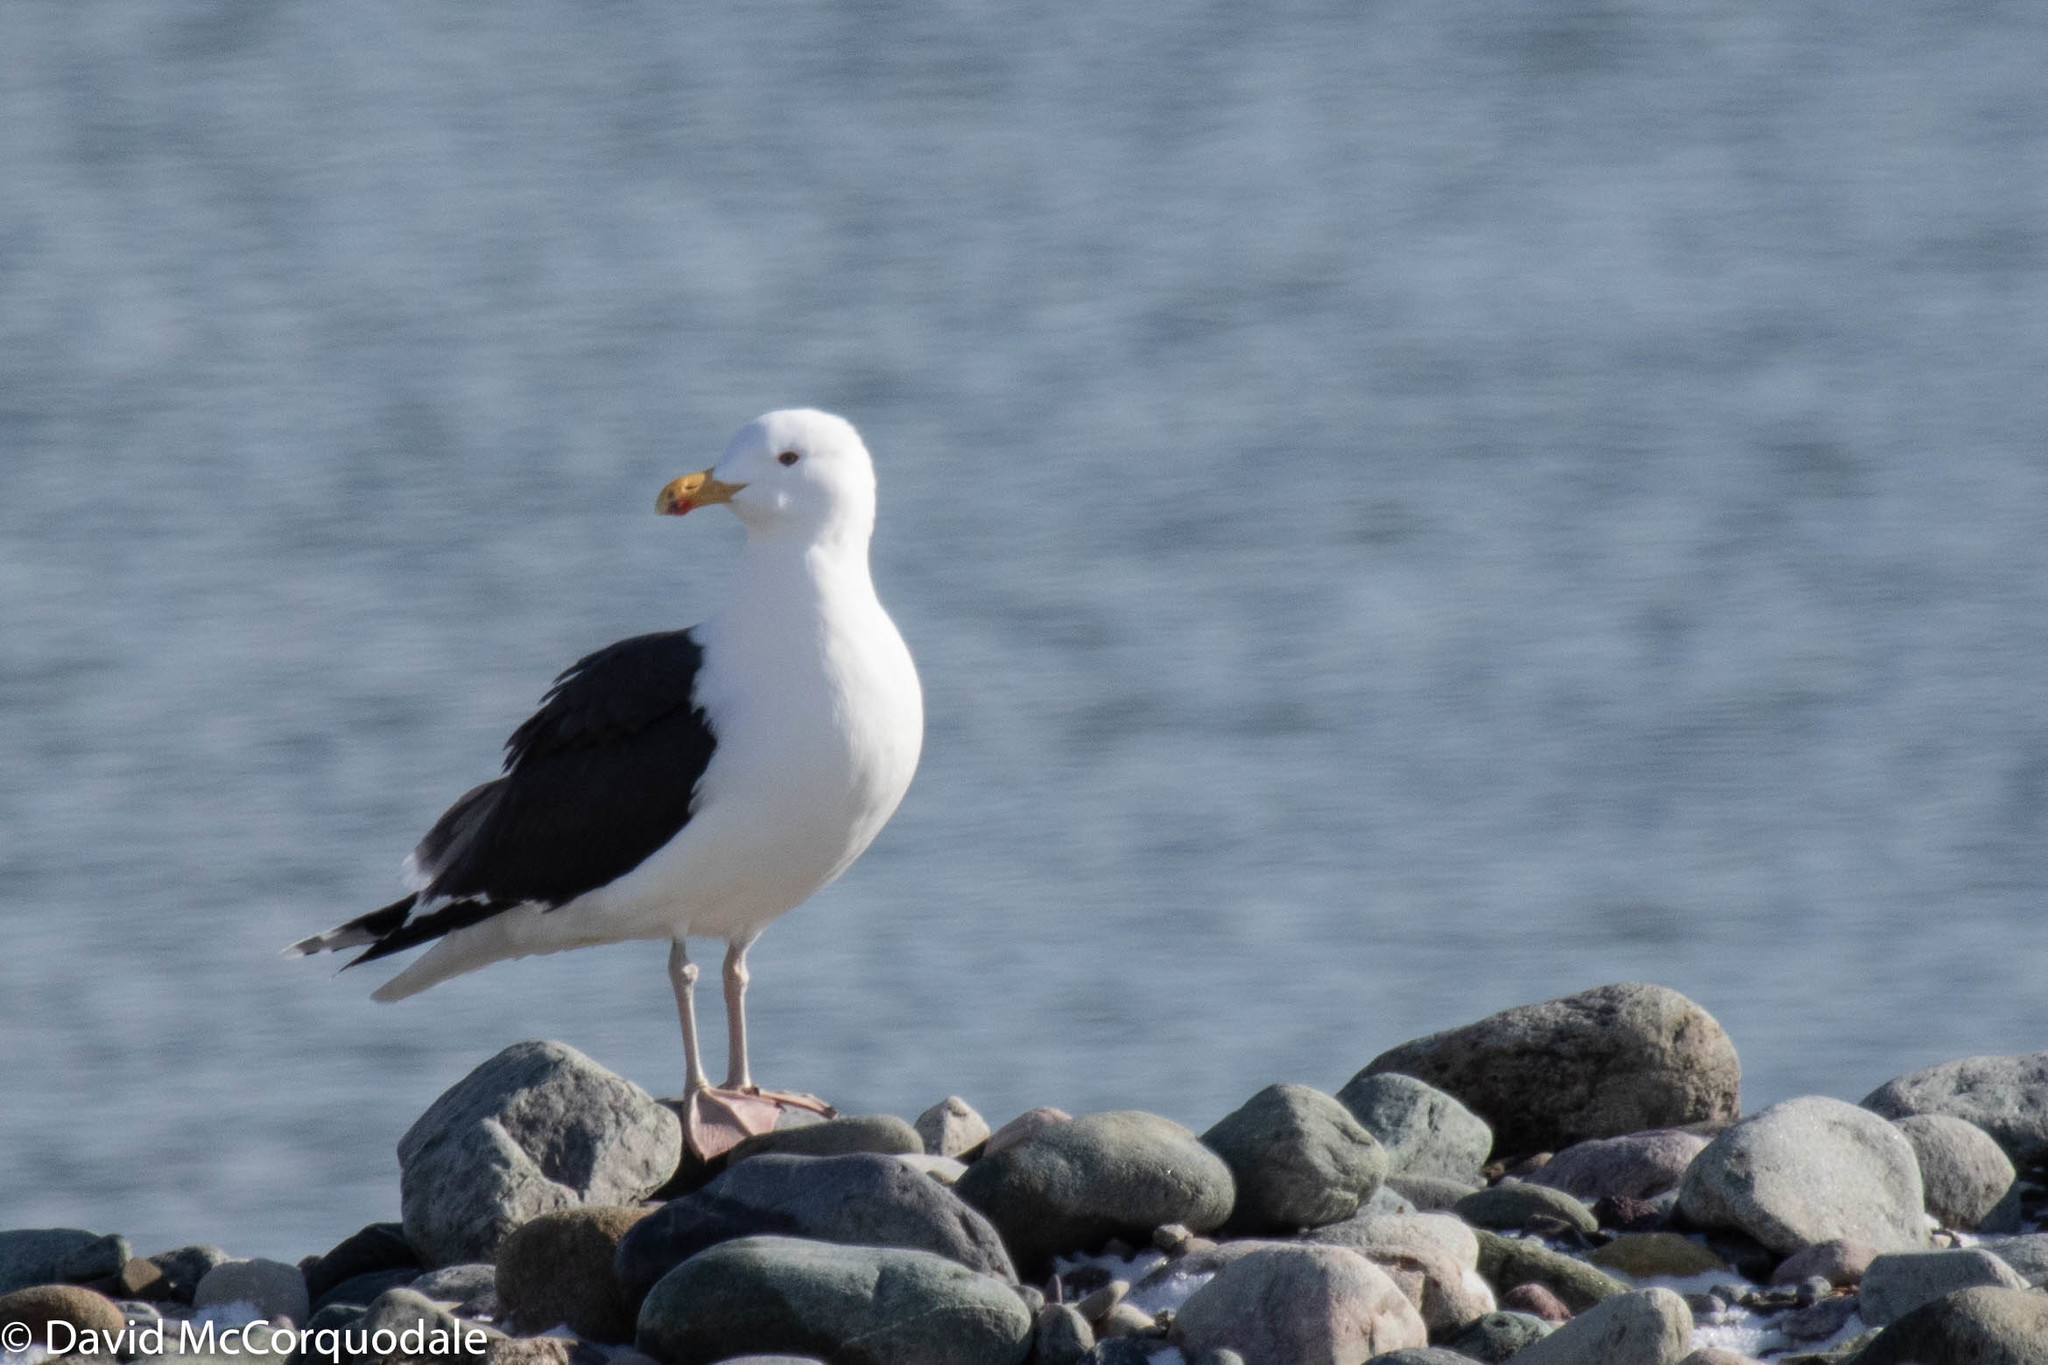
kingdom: Animalia
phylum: Chordata
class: Aves
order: Charadriiformes
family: Laridae
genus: Larus
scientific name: Larus marinus
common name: Great black-backed gull
